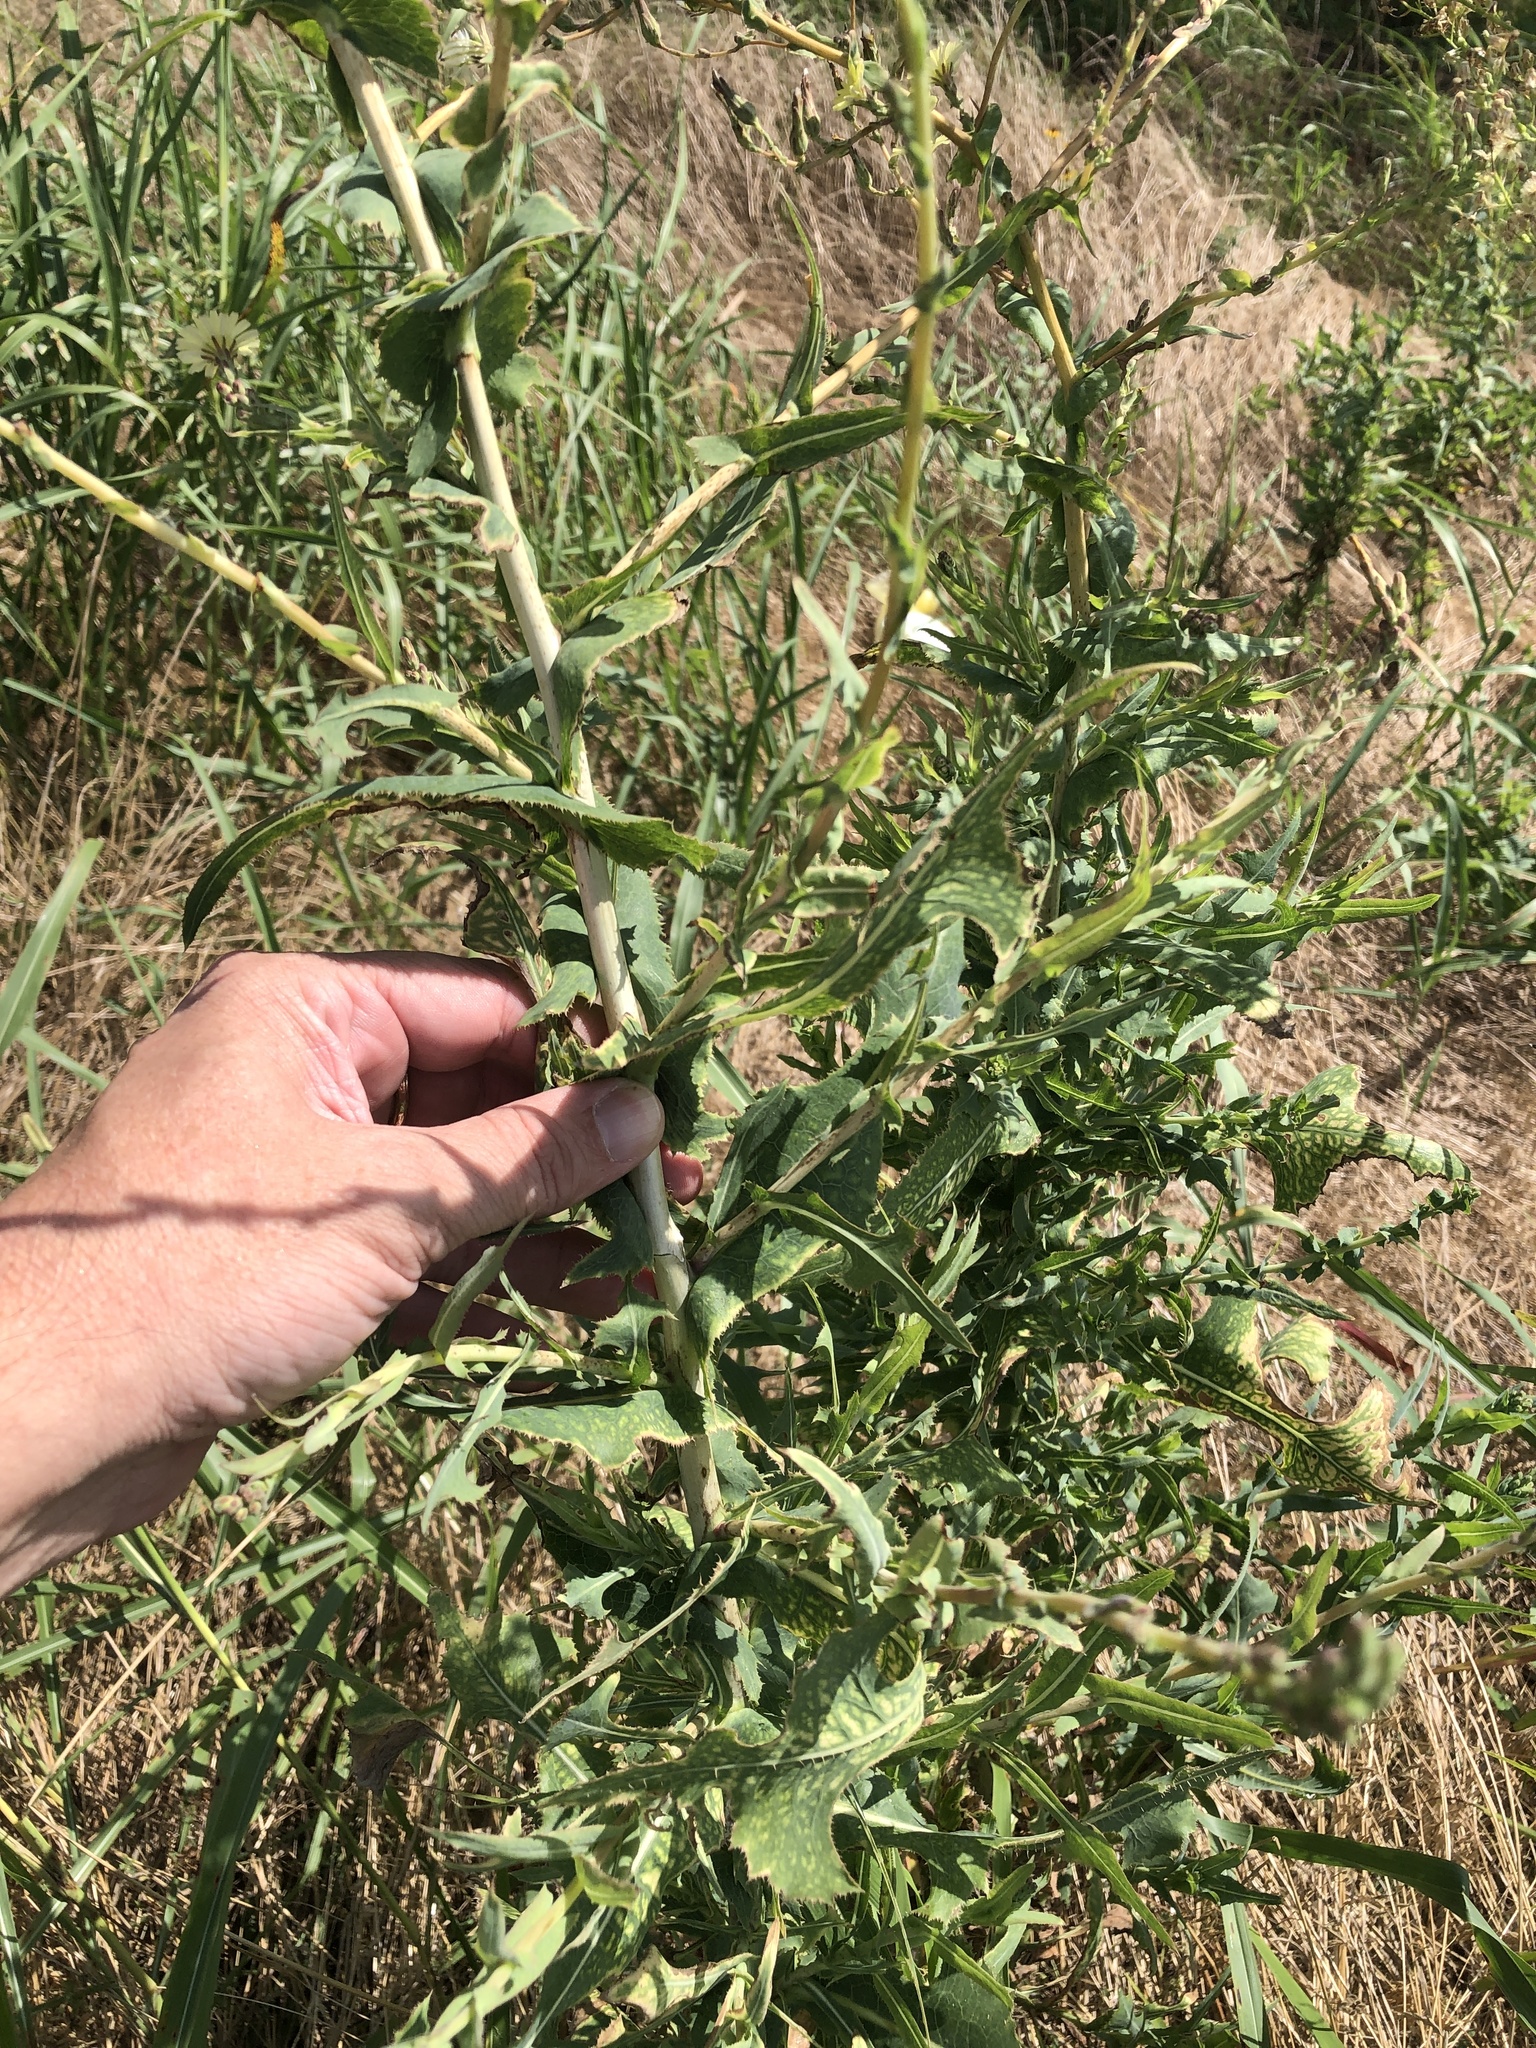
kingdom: Plantae
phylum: Tracheophyta
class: Magnoliopsida
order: Asterales
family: Asteraceae
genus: Lactuca
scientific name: Lactuca serriola
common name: Prickly lettuce
